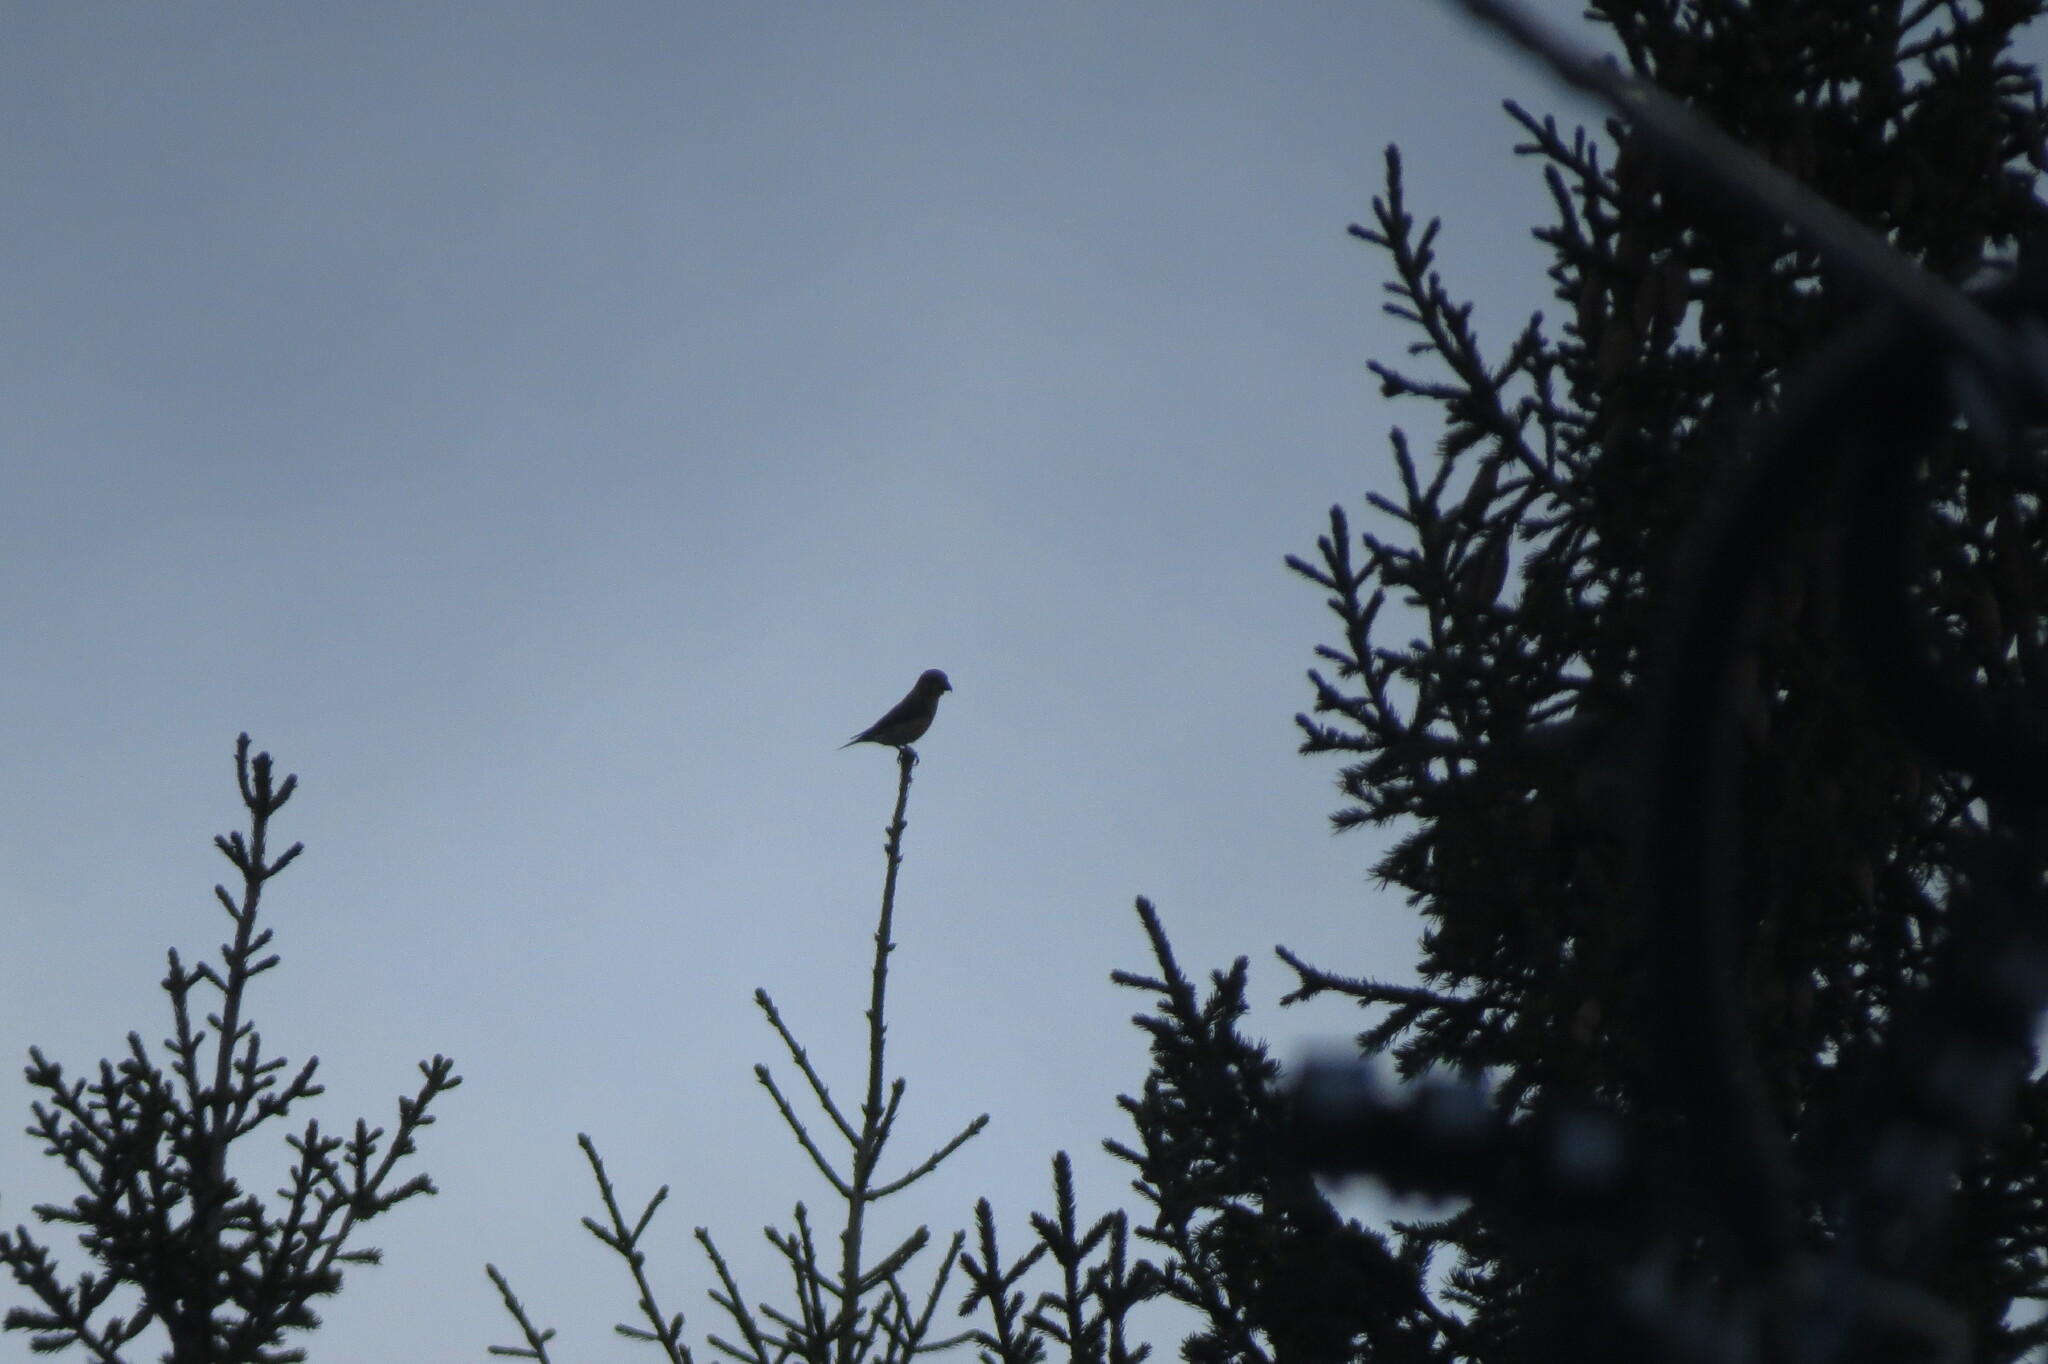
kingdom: Animalia
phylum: Chordata
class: Aves
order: Passeriformes
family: Fringillidae
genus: Loxia
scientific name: Loxia curvirostra
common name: Red crossbill
